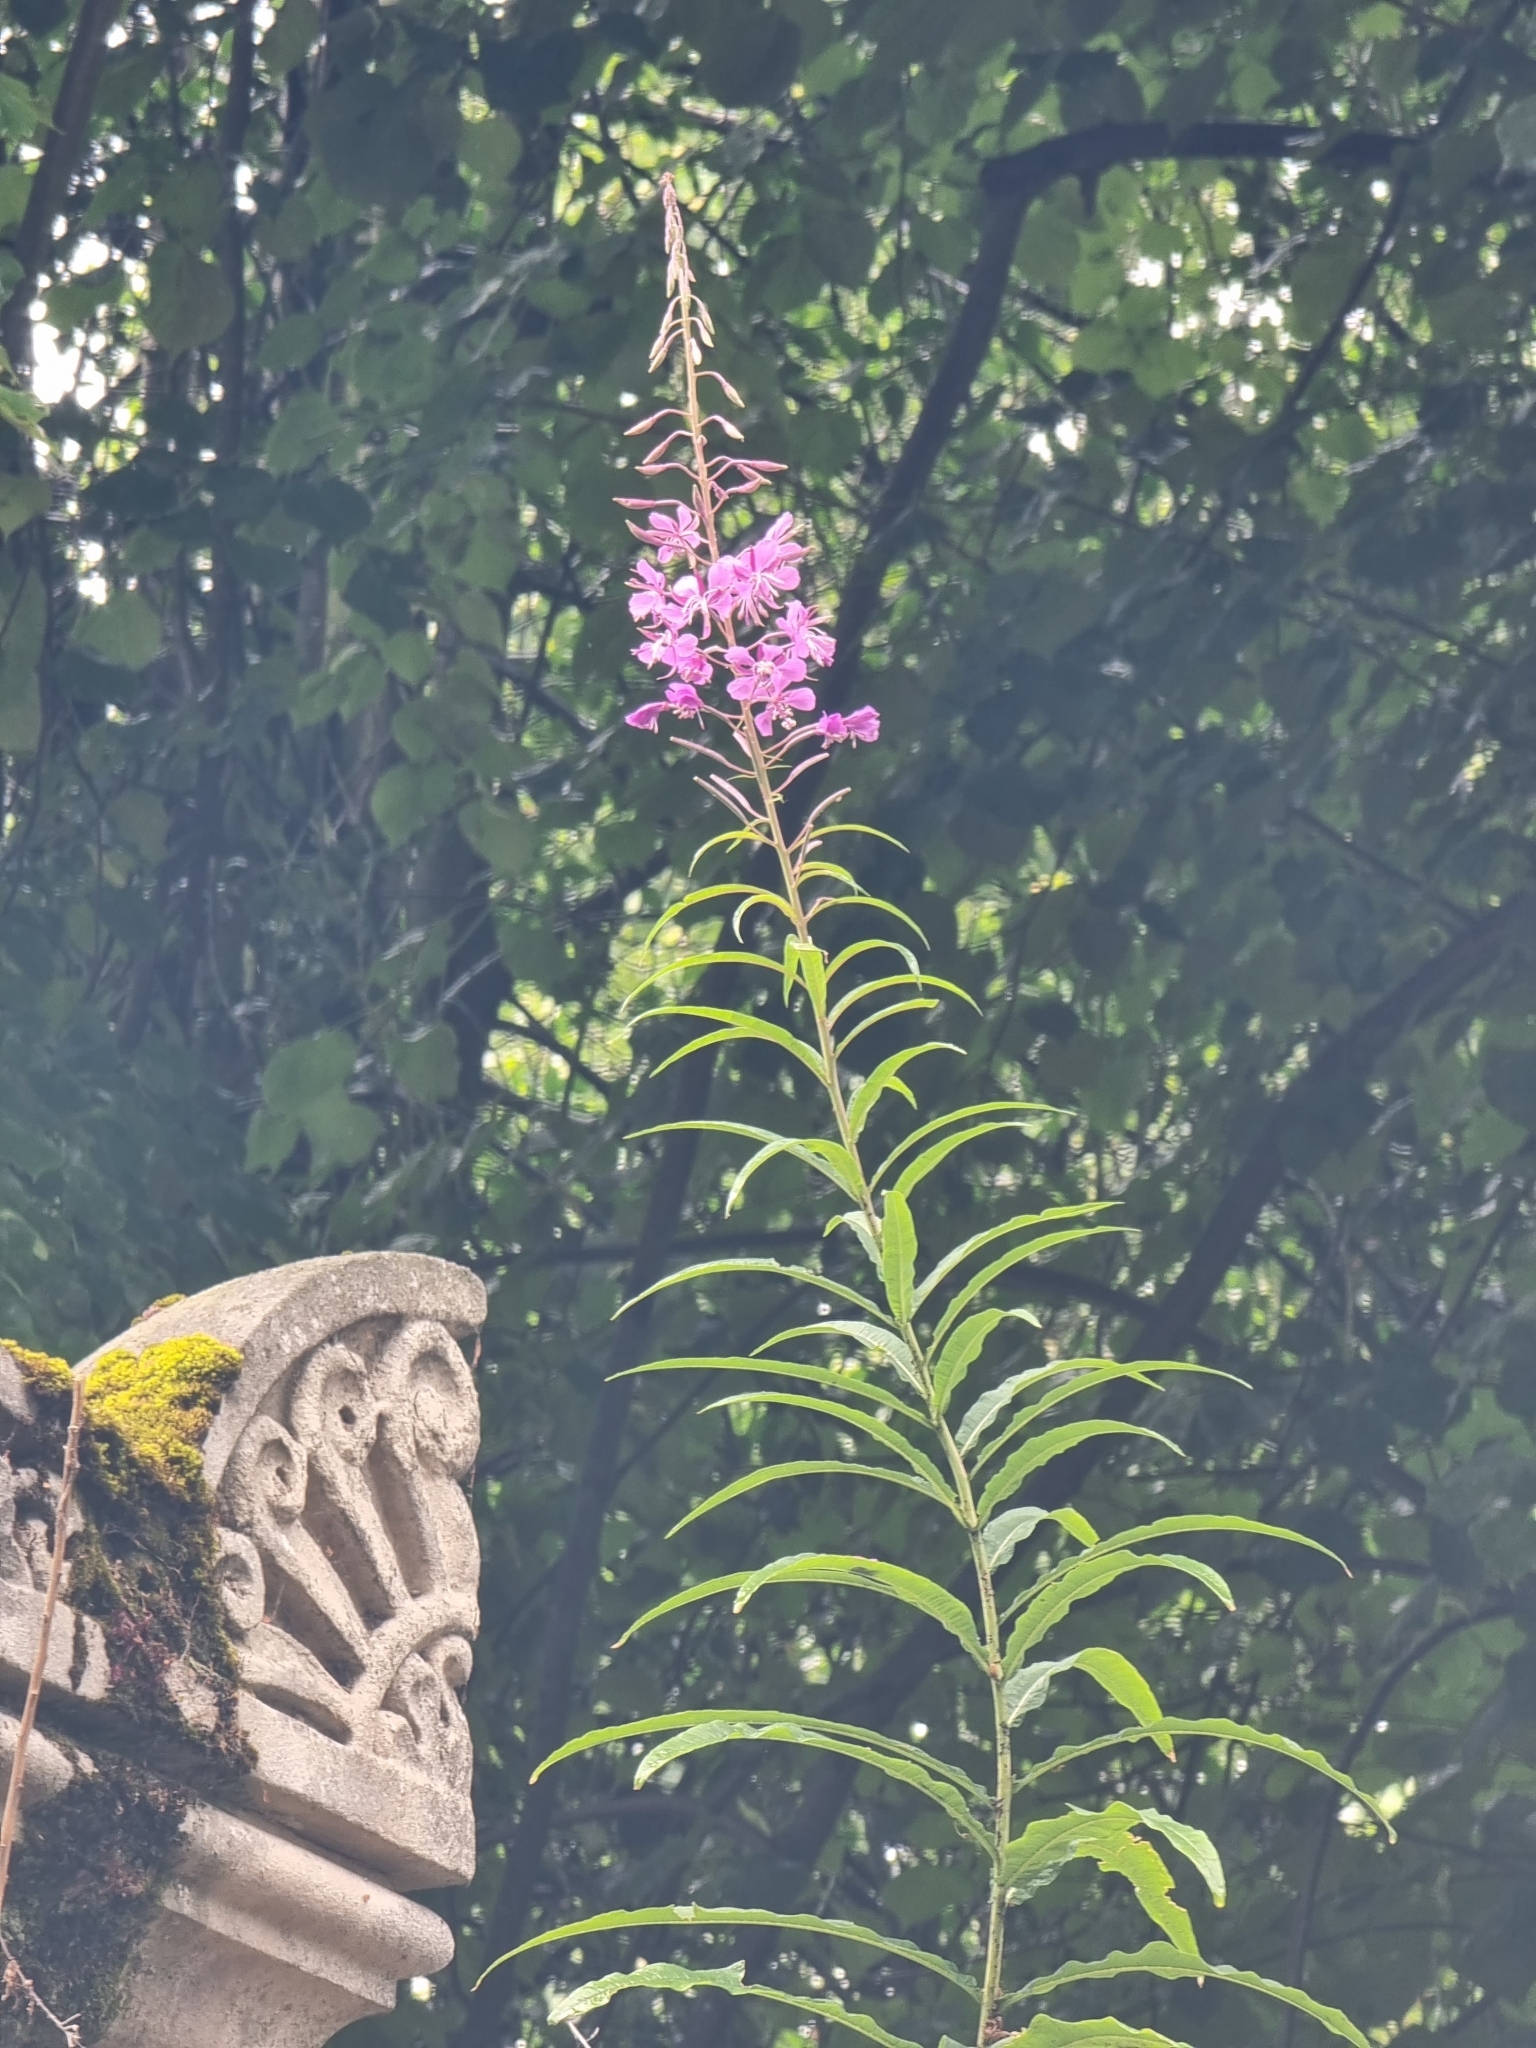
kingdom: Plantae
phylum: Tracheophyta
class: Magnoliopsida
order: Myrtales
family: Onagraceae
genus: Chamaenerion
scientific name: Chamaenerion angustifolium
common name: Fireweed
